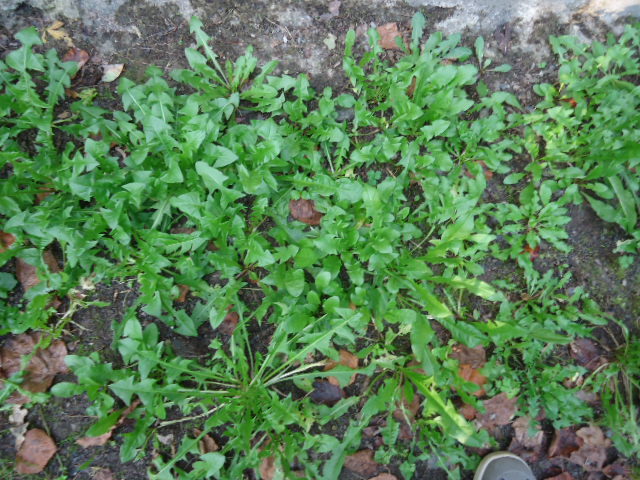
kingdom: Plantae
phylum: Tracheophyta
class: Magnoliopsida
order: Asterales
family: Asteraceae
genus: Taraxacum
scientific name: Taraxacum officinale
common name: Common dandelion
